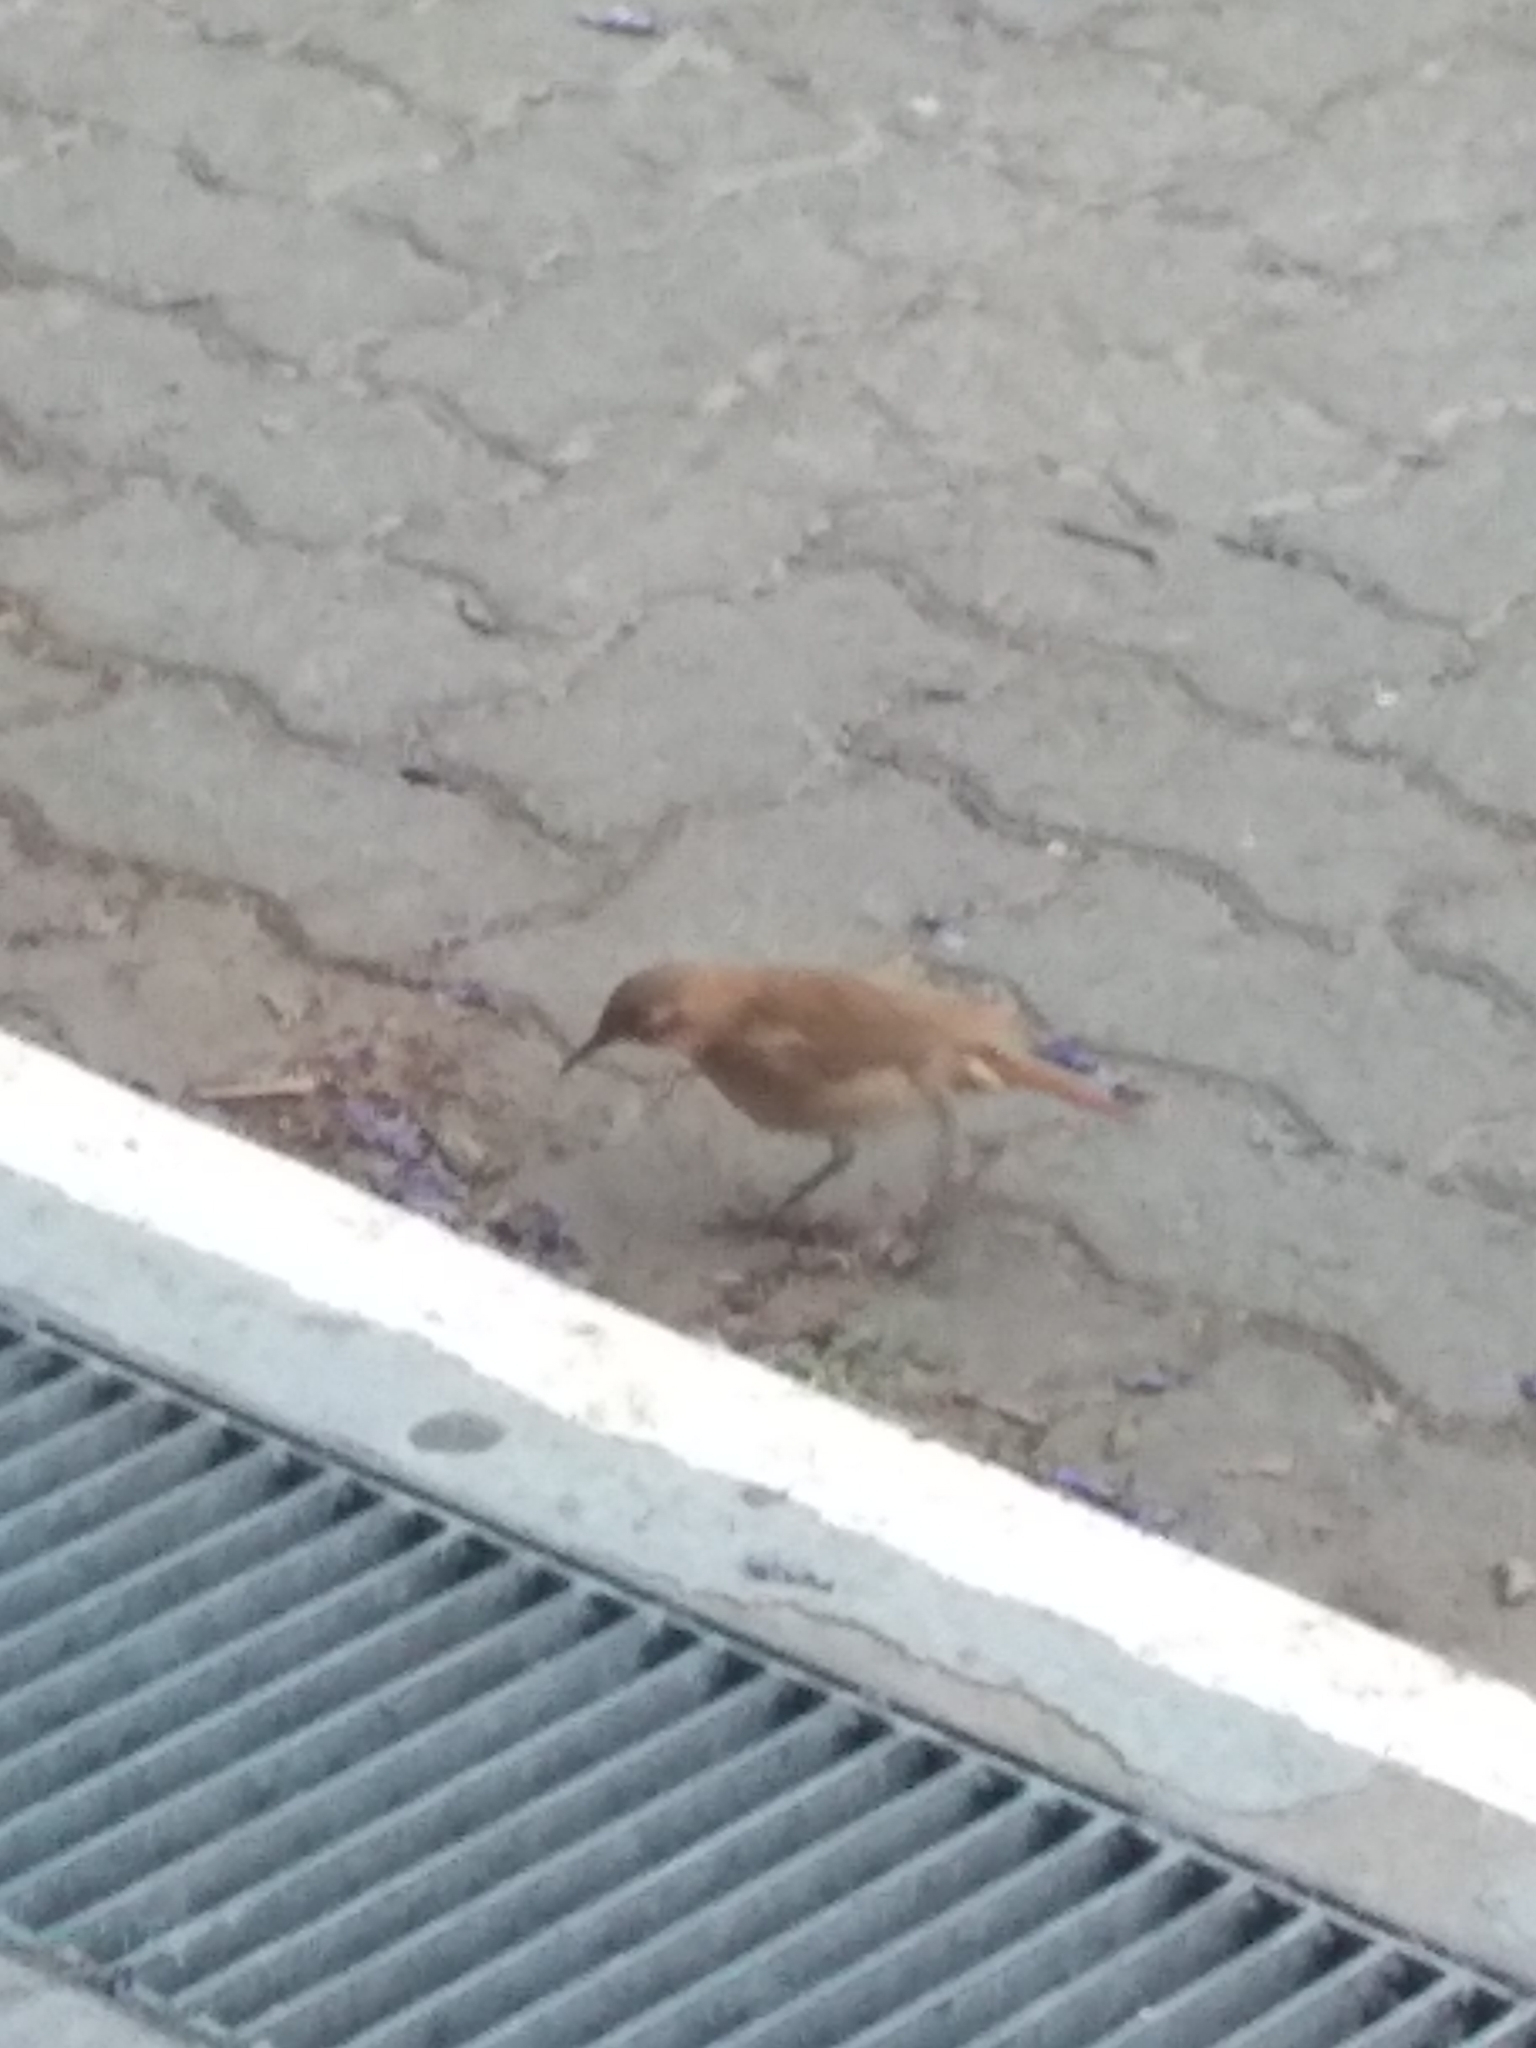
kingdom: Animalia
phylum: Chordata
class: Aves
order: Passeriformes
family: Furnariidae
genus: Furnarius
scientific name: Furnarius rufus
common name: Rufous hornero
